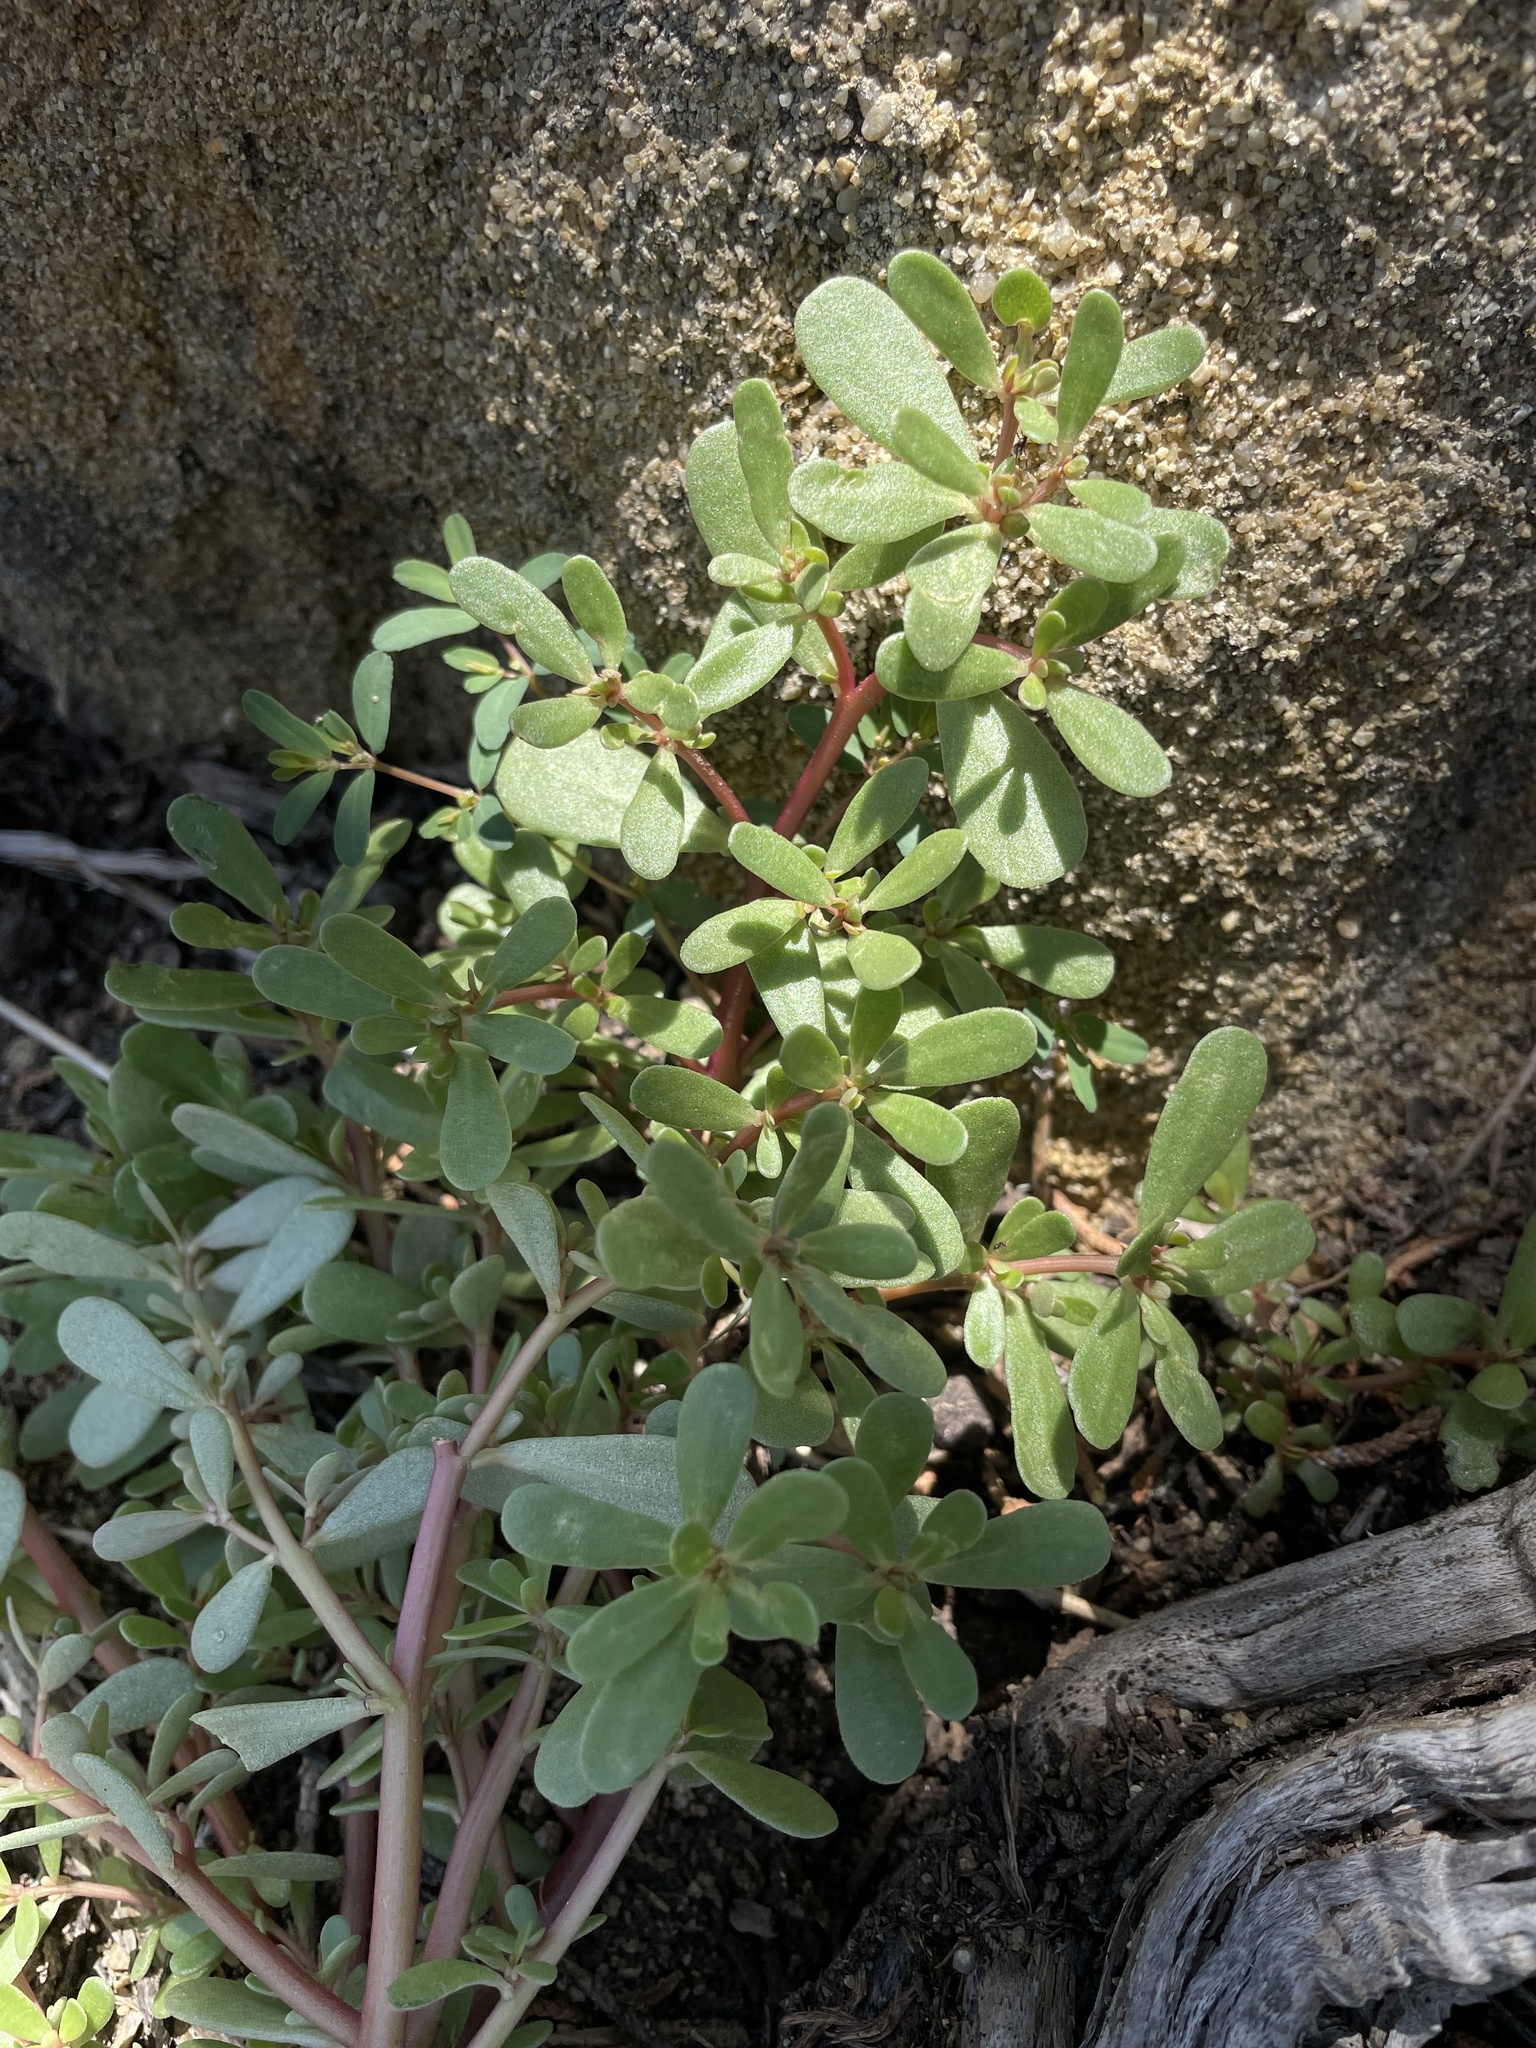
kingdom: Plantae
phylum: Tracheophyta
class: Magnoliopsida
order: Caryophyllales
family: Portulacaceae
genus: Portulaca
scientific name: Portulaca oleracea
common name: Common purslane
